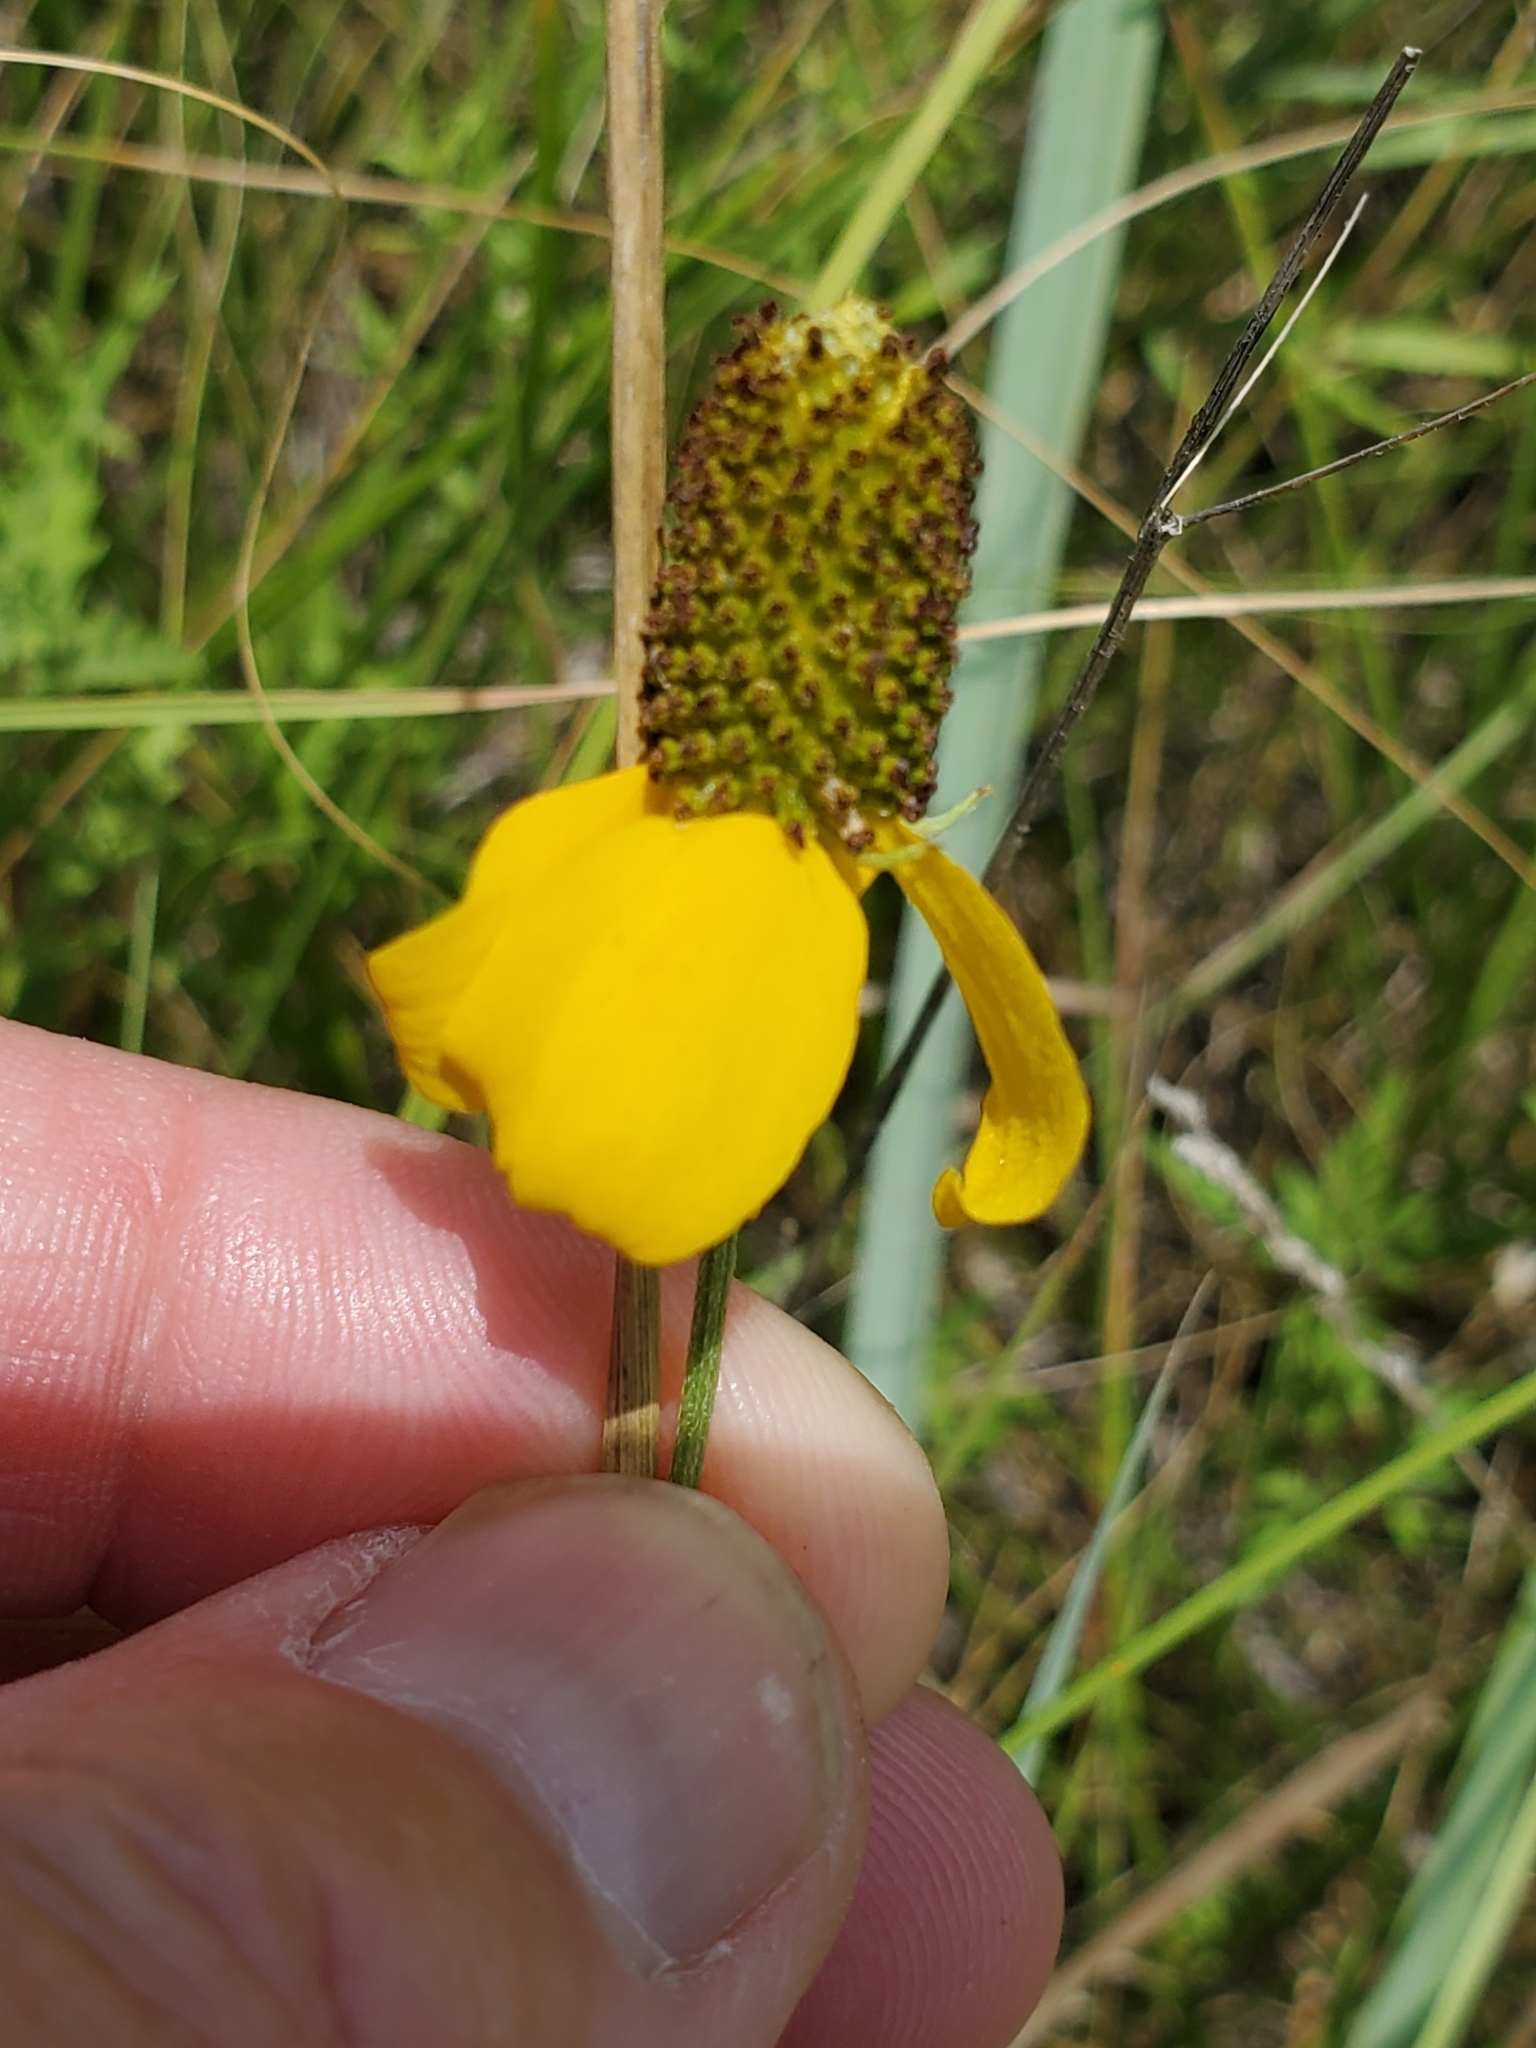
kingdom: Plantae
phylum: Tracheophyta
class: Magnoliopsida
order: Asterales
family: Asteraceae
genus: Ratibida
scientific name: Ratibida columnifera
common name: Prairie coneflower
